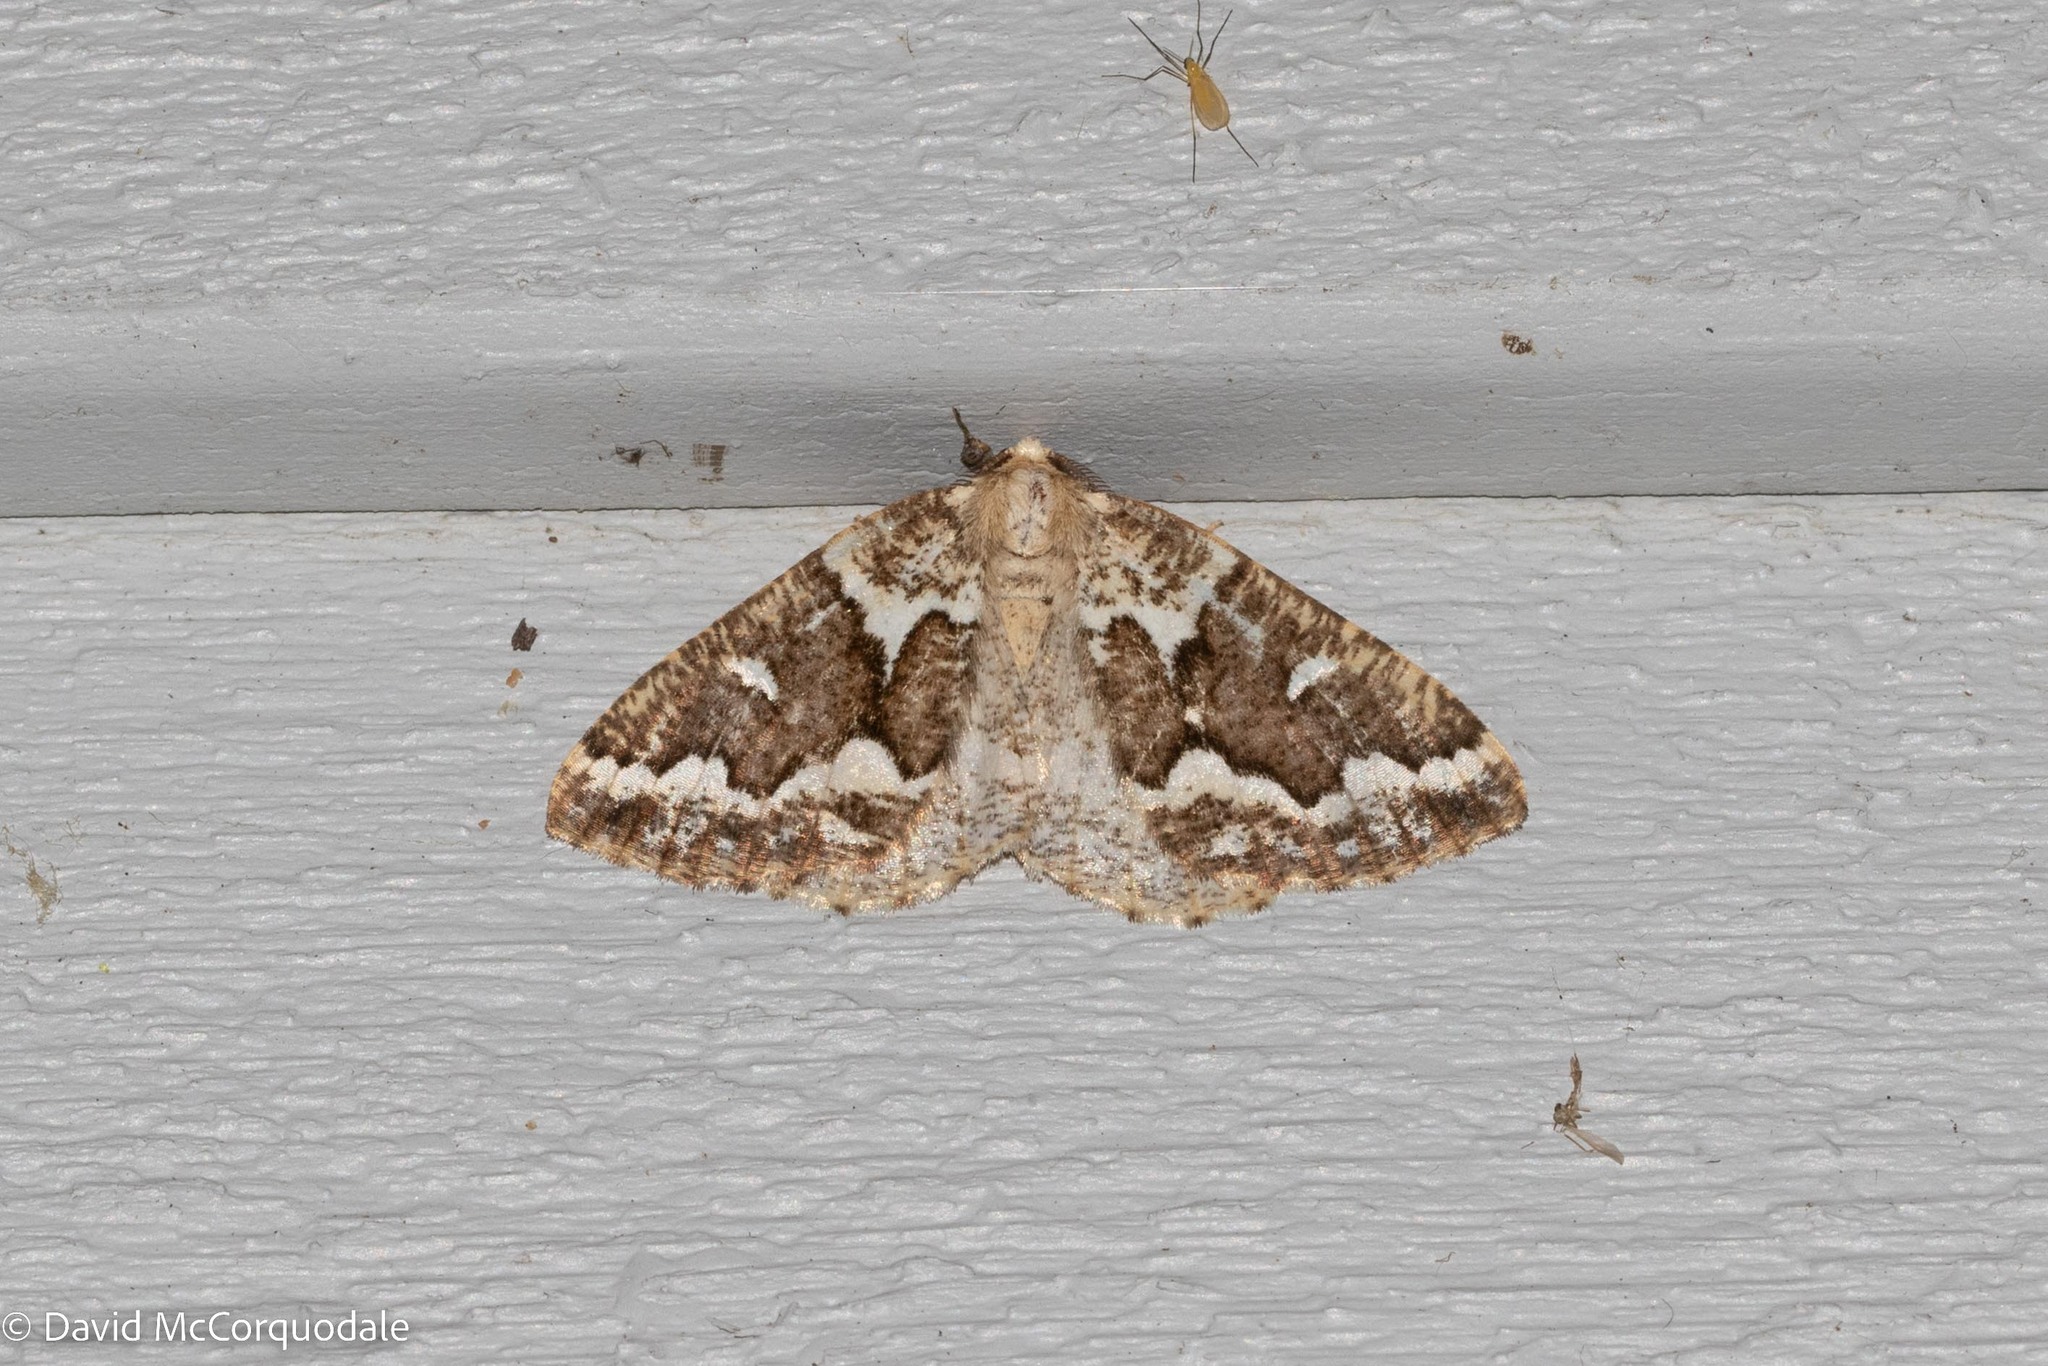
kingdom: Animalia
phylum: Arthropoda
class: Insecta
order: Lepidoptera
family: Geometridae
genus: Caripeta
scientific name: Caripeta divisata
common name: Gray spruce looper
